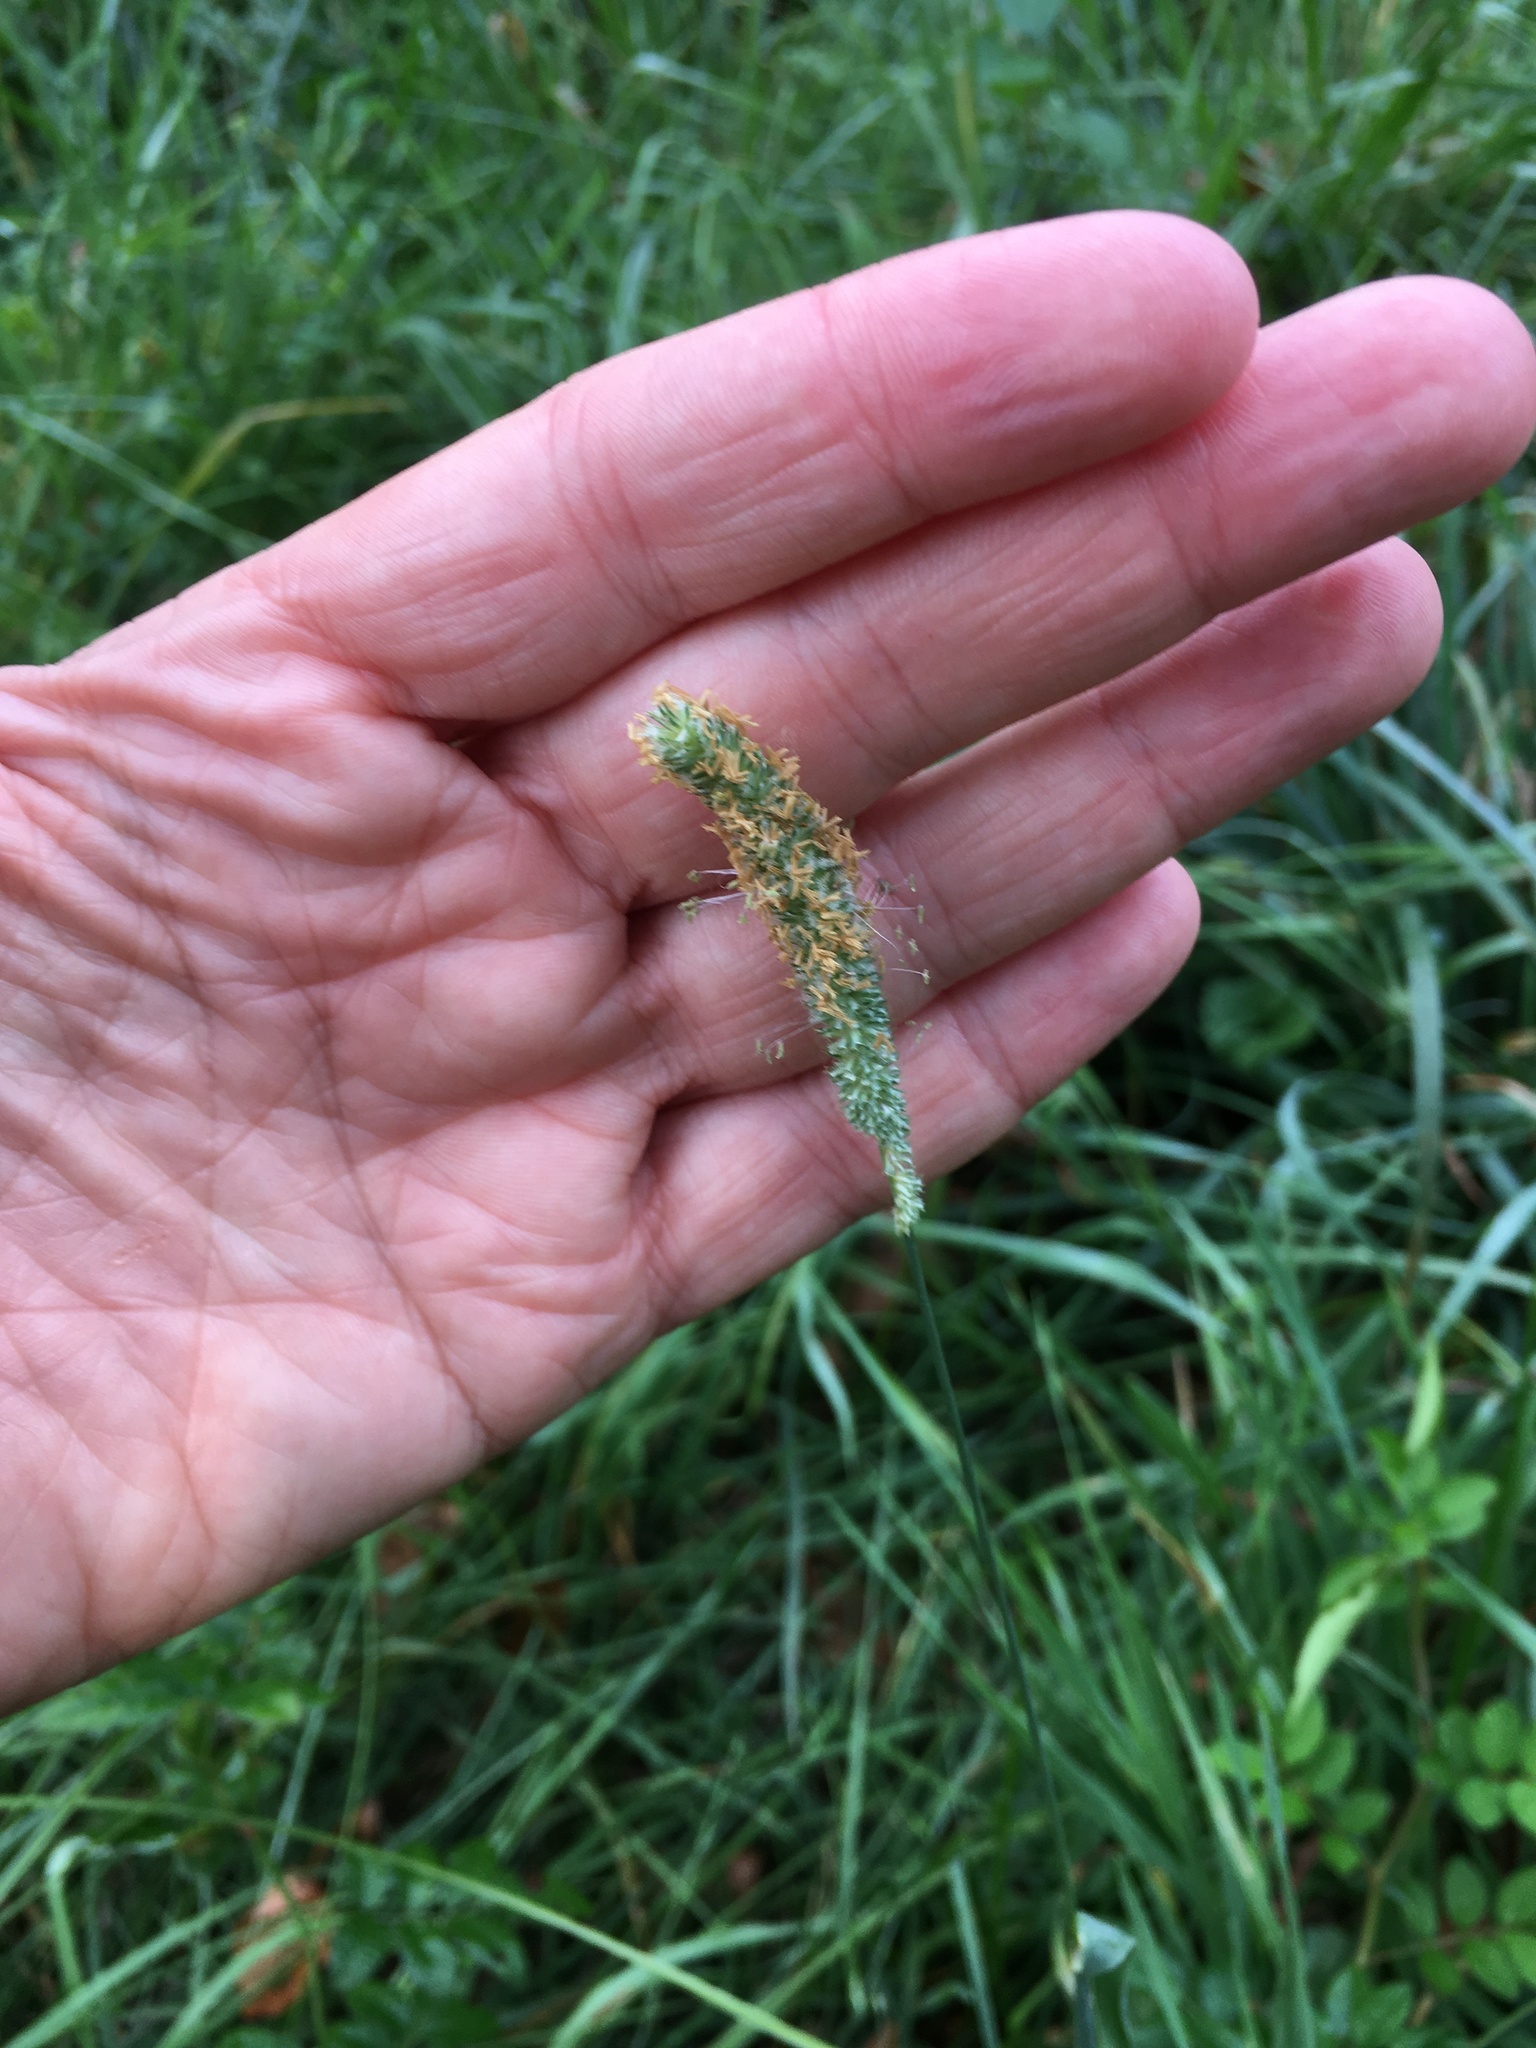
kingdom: Plantae
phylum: Tracheophyta
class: Liliopsida
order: Poales
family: Poaceae
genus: Phleum
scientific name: Phleum pratense
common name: Timothy grass
